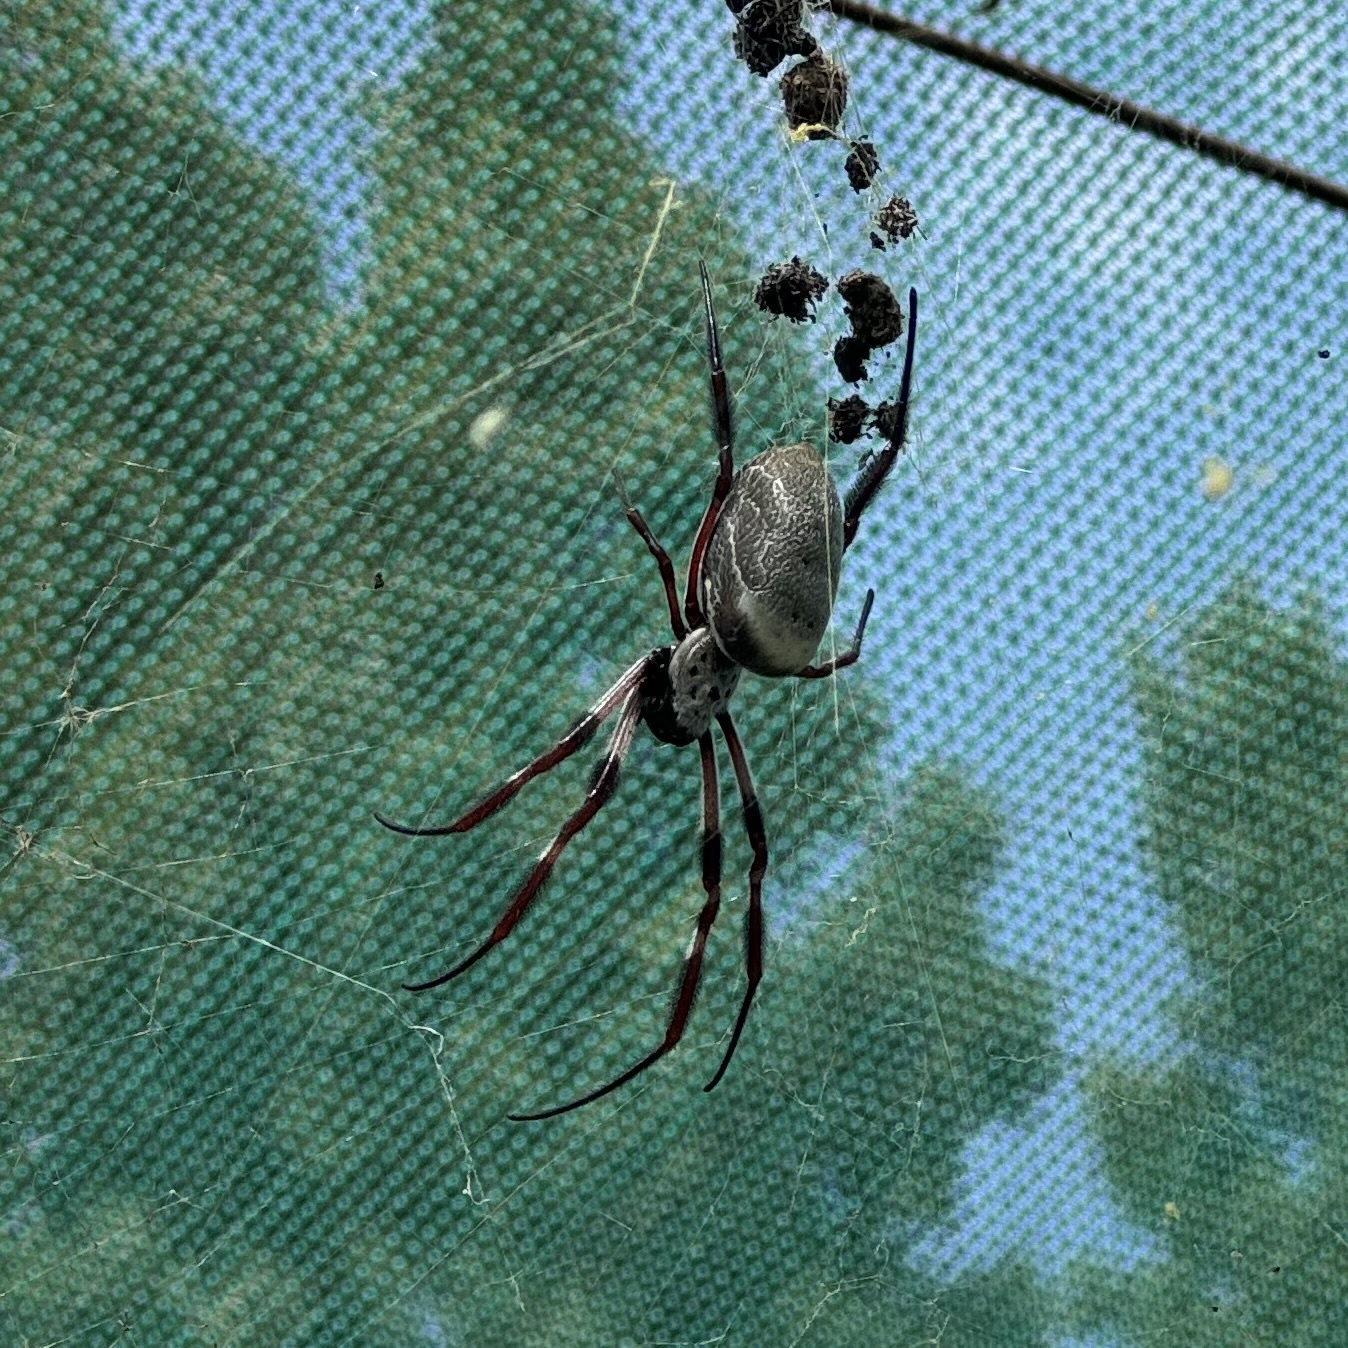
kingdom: Animalia
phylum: Arthropoda
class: Arachnida
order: Araneae
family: Araneidae
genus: Trichonephila
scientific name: Trichonephila edulis
